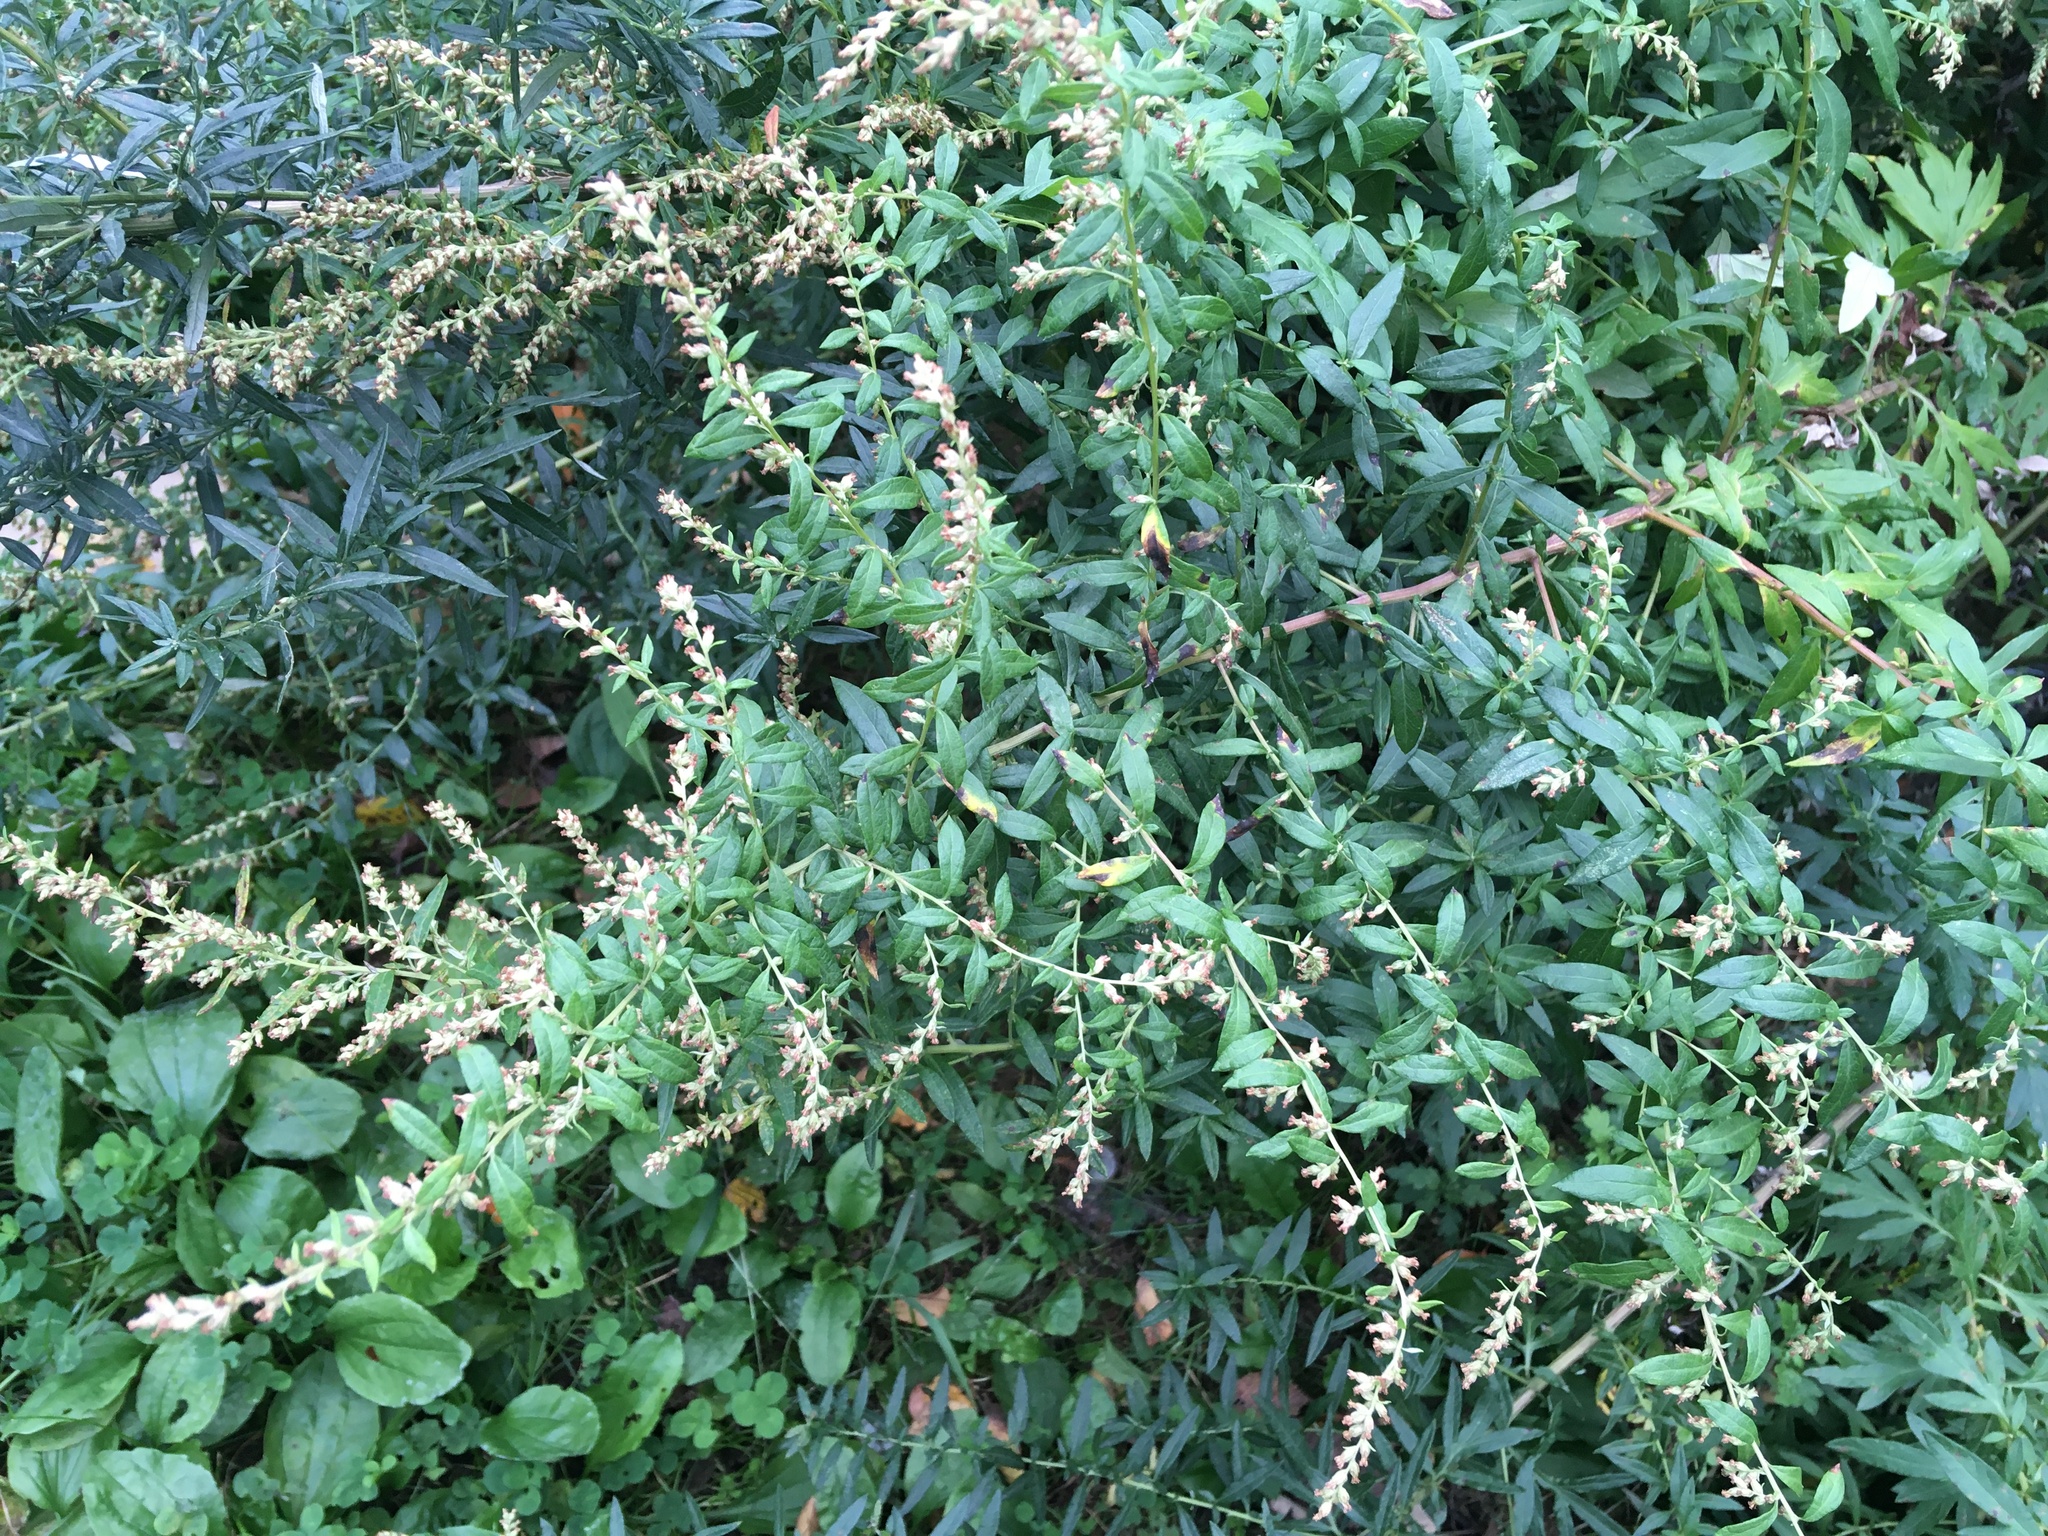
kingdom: Plantae
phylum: Tracheophyta
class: Magnoliopsida
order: Asterales
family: Asteraceae
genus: Artemisia
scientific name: Artemisia vulgaris
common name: Mugwort
